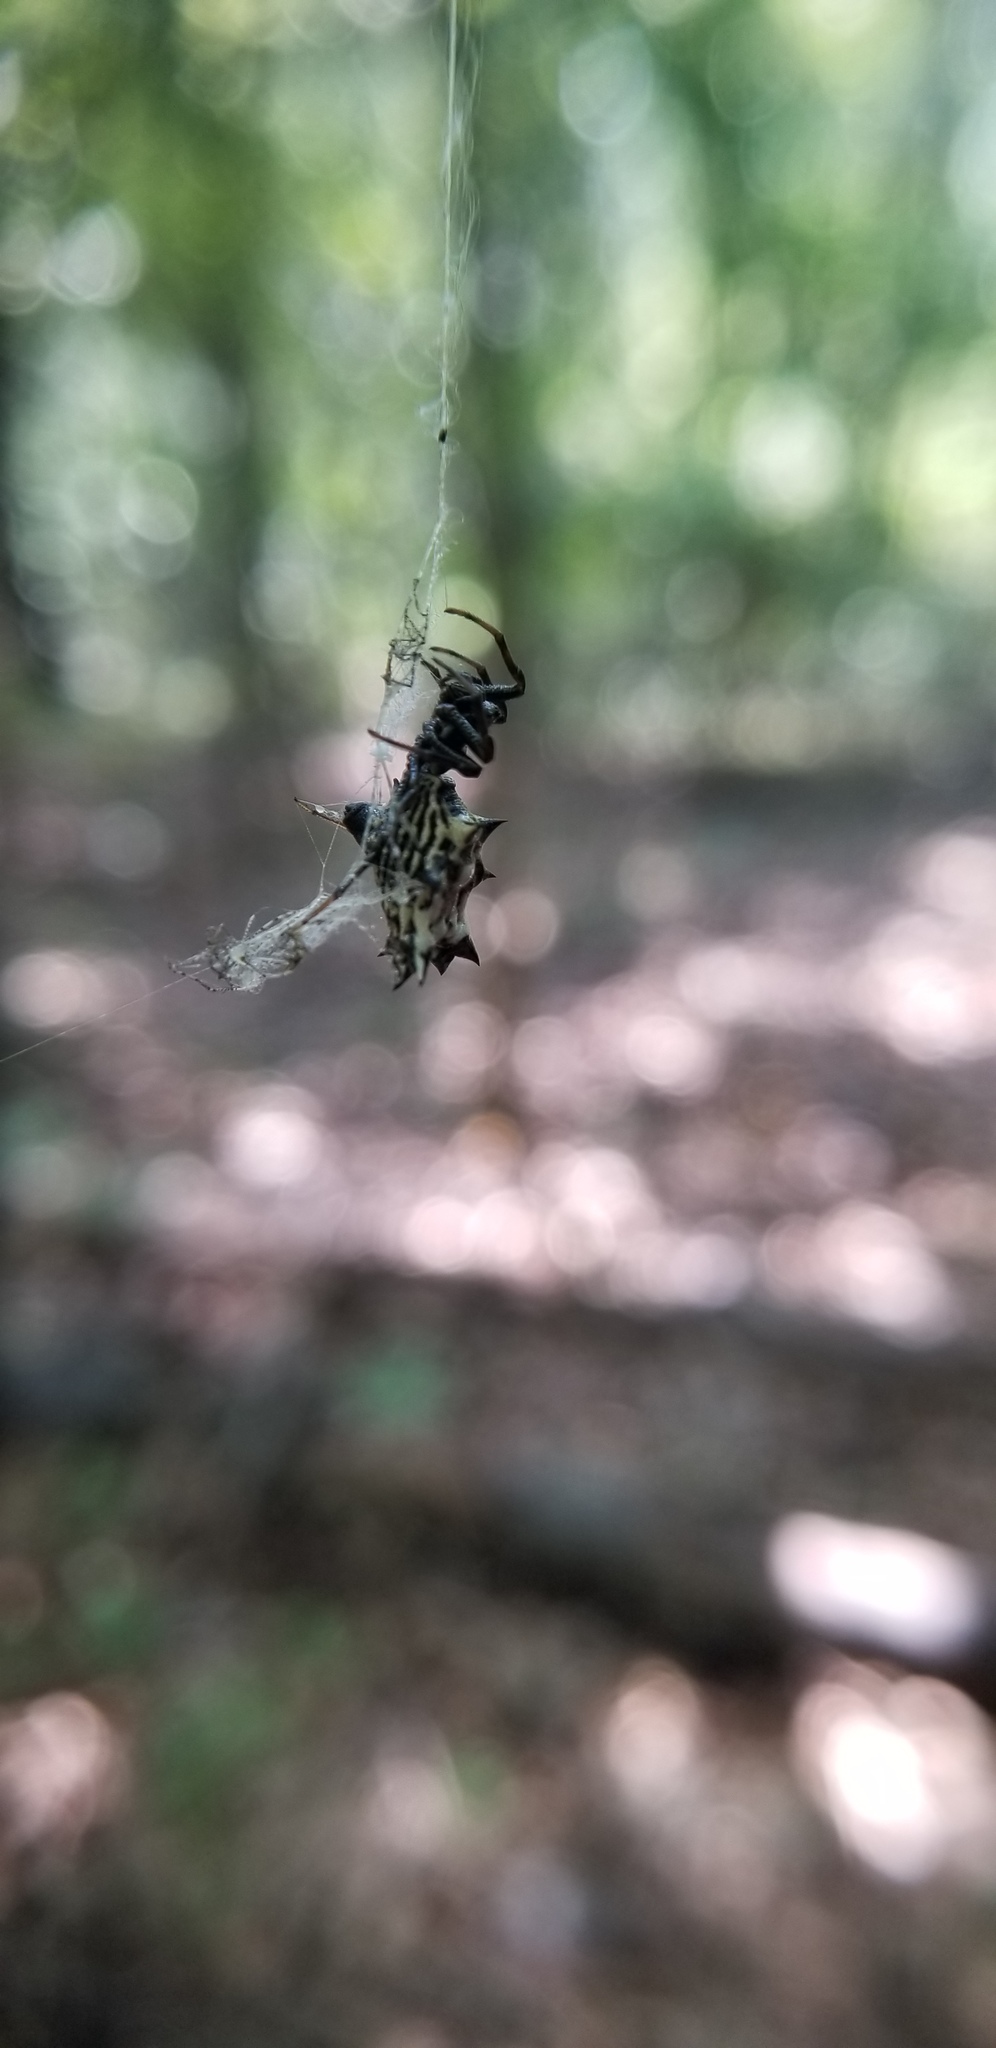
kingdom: Animalia
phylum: Arthropoda
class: Arachnida
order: Araneae
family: Araneidae
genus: Micrathena
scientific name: Micrathena gracilis
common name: Orb weavers
